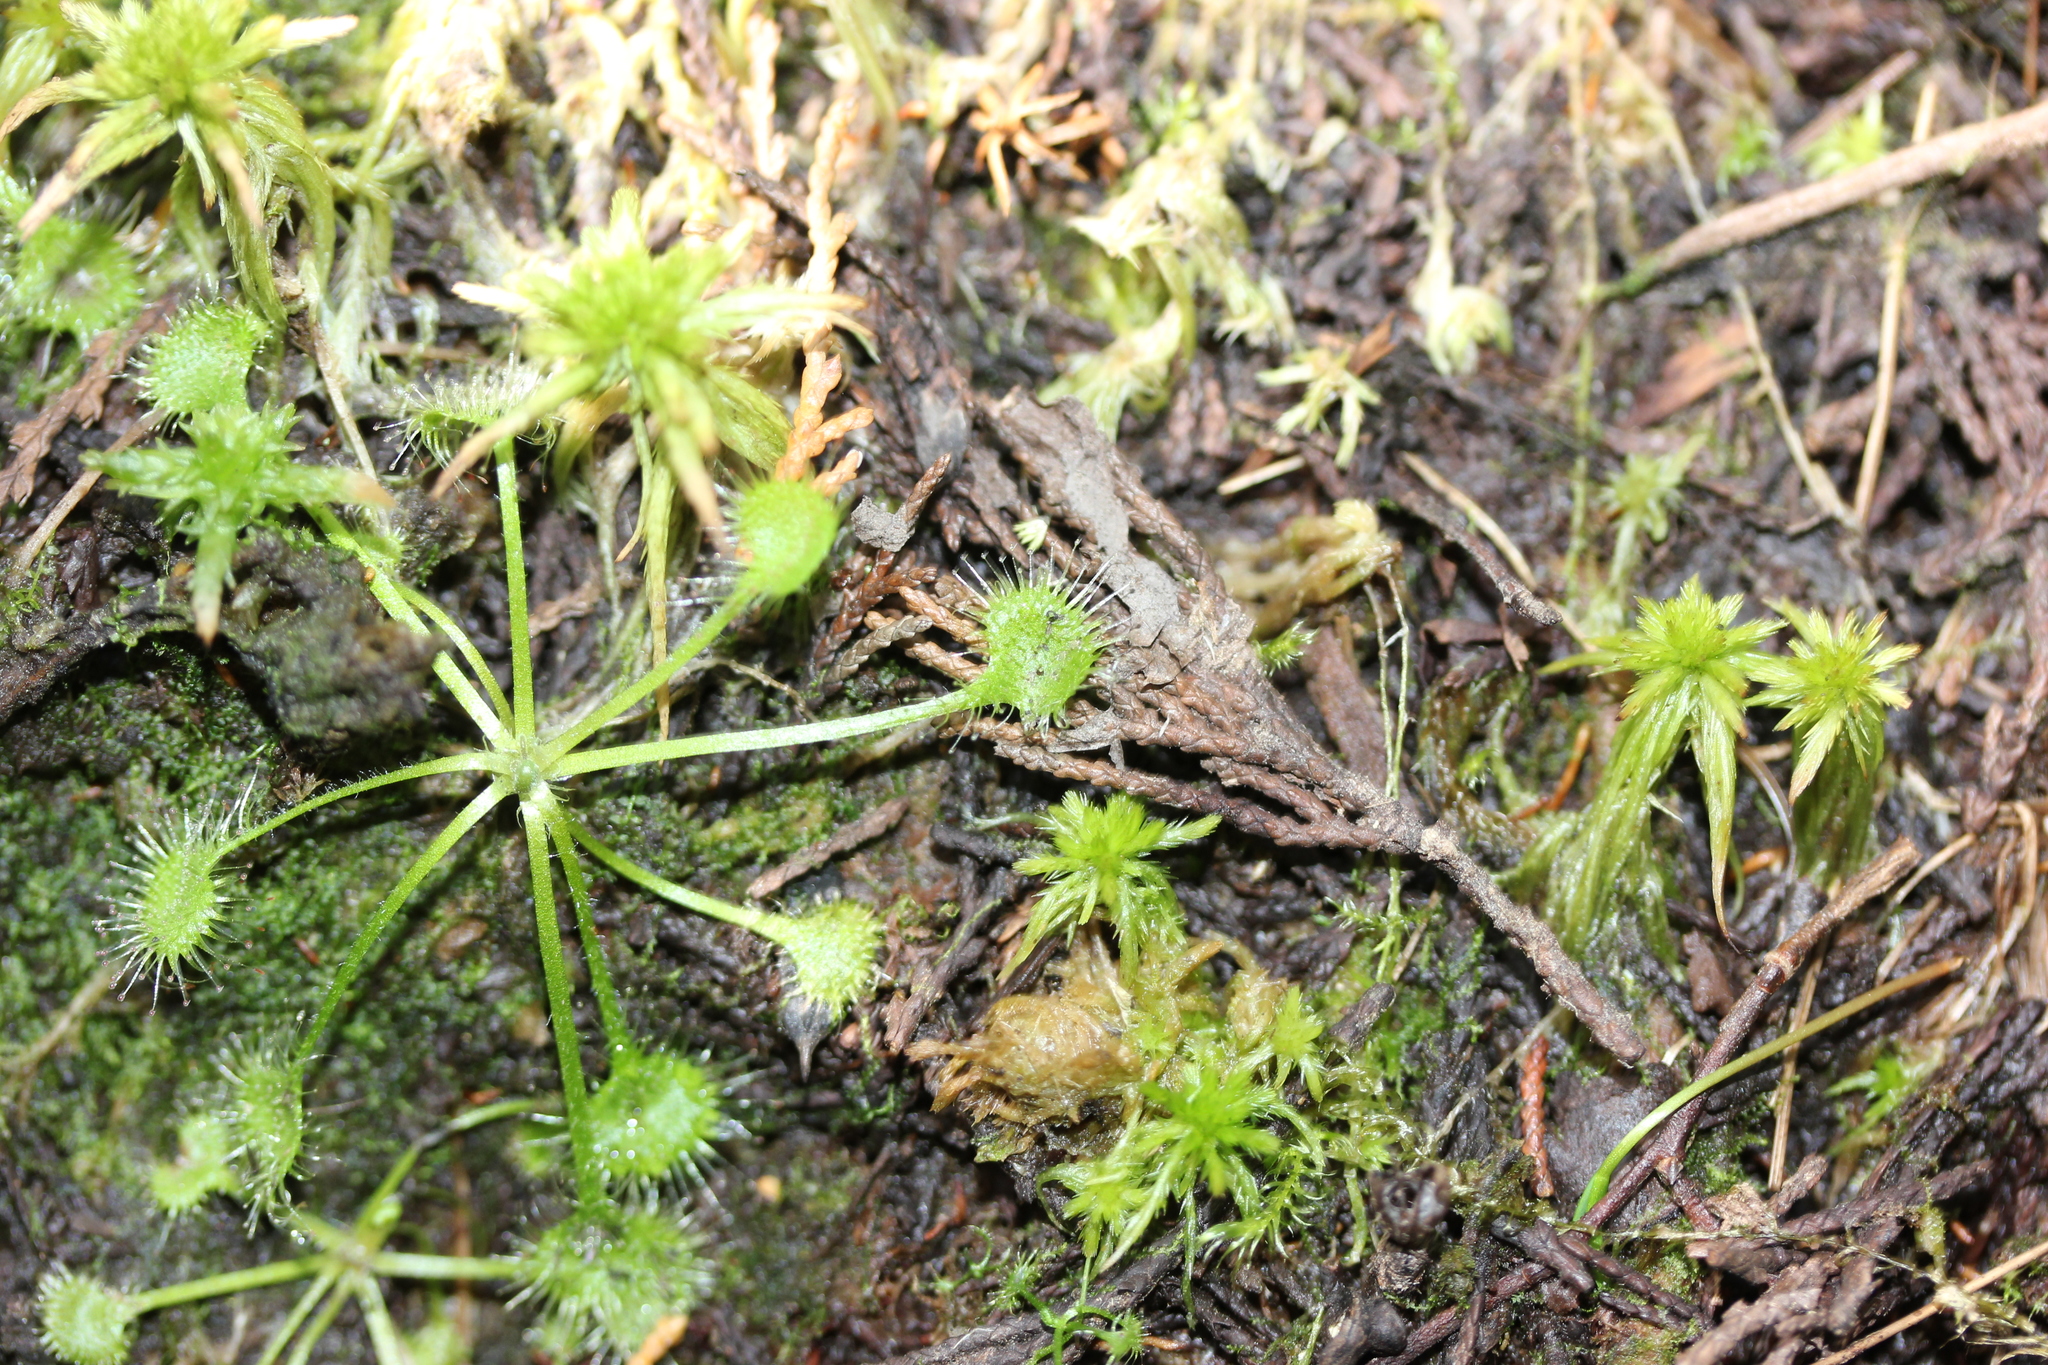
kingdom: Plantae
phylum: Tracheophyta
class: Magnoliopsida
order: Caryophyllales
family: Droseraceae
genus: Drosera
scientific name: Drosera rotundifolia
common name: Round-leaved sundew
